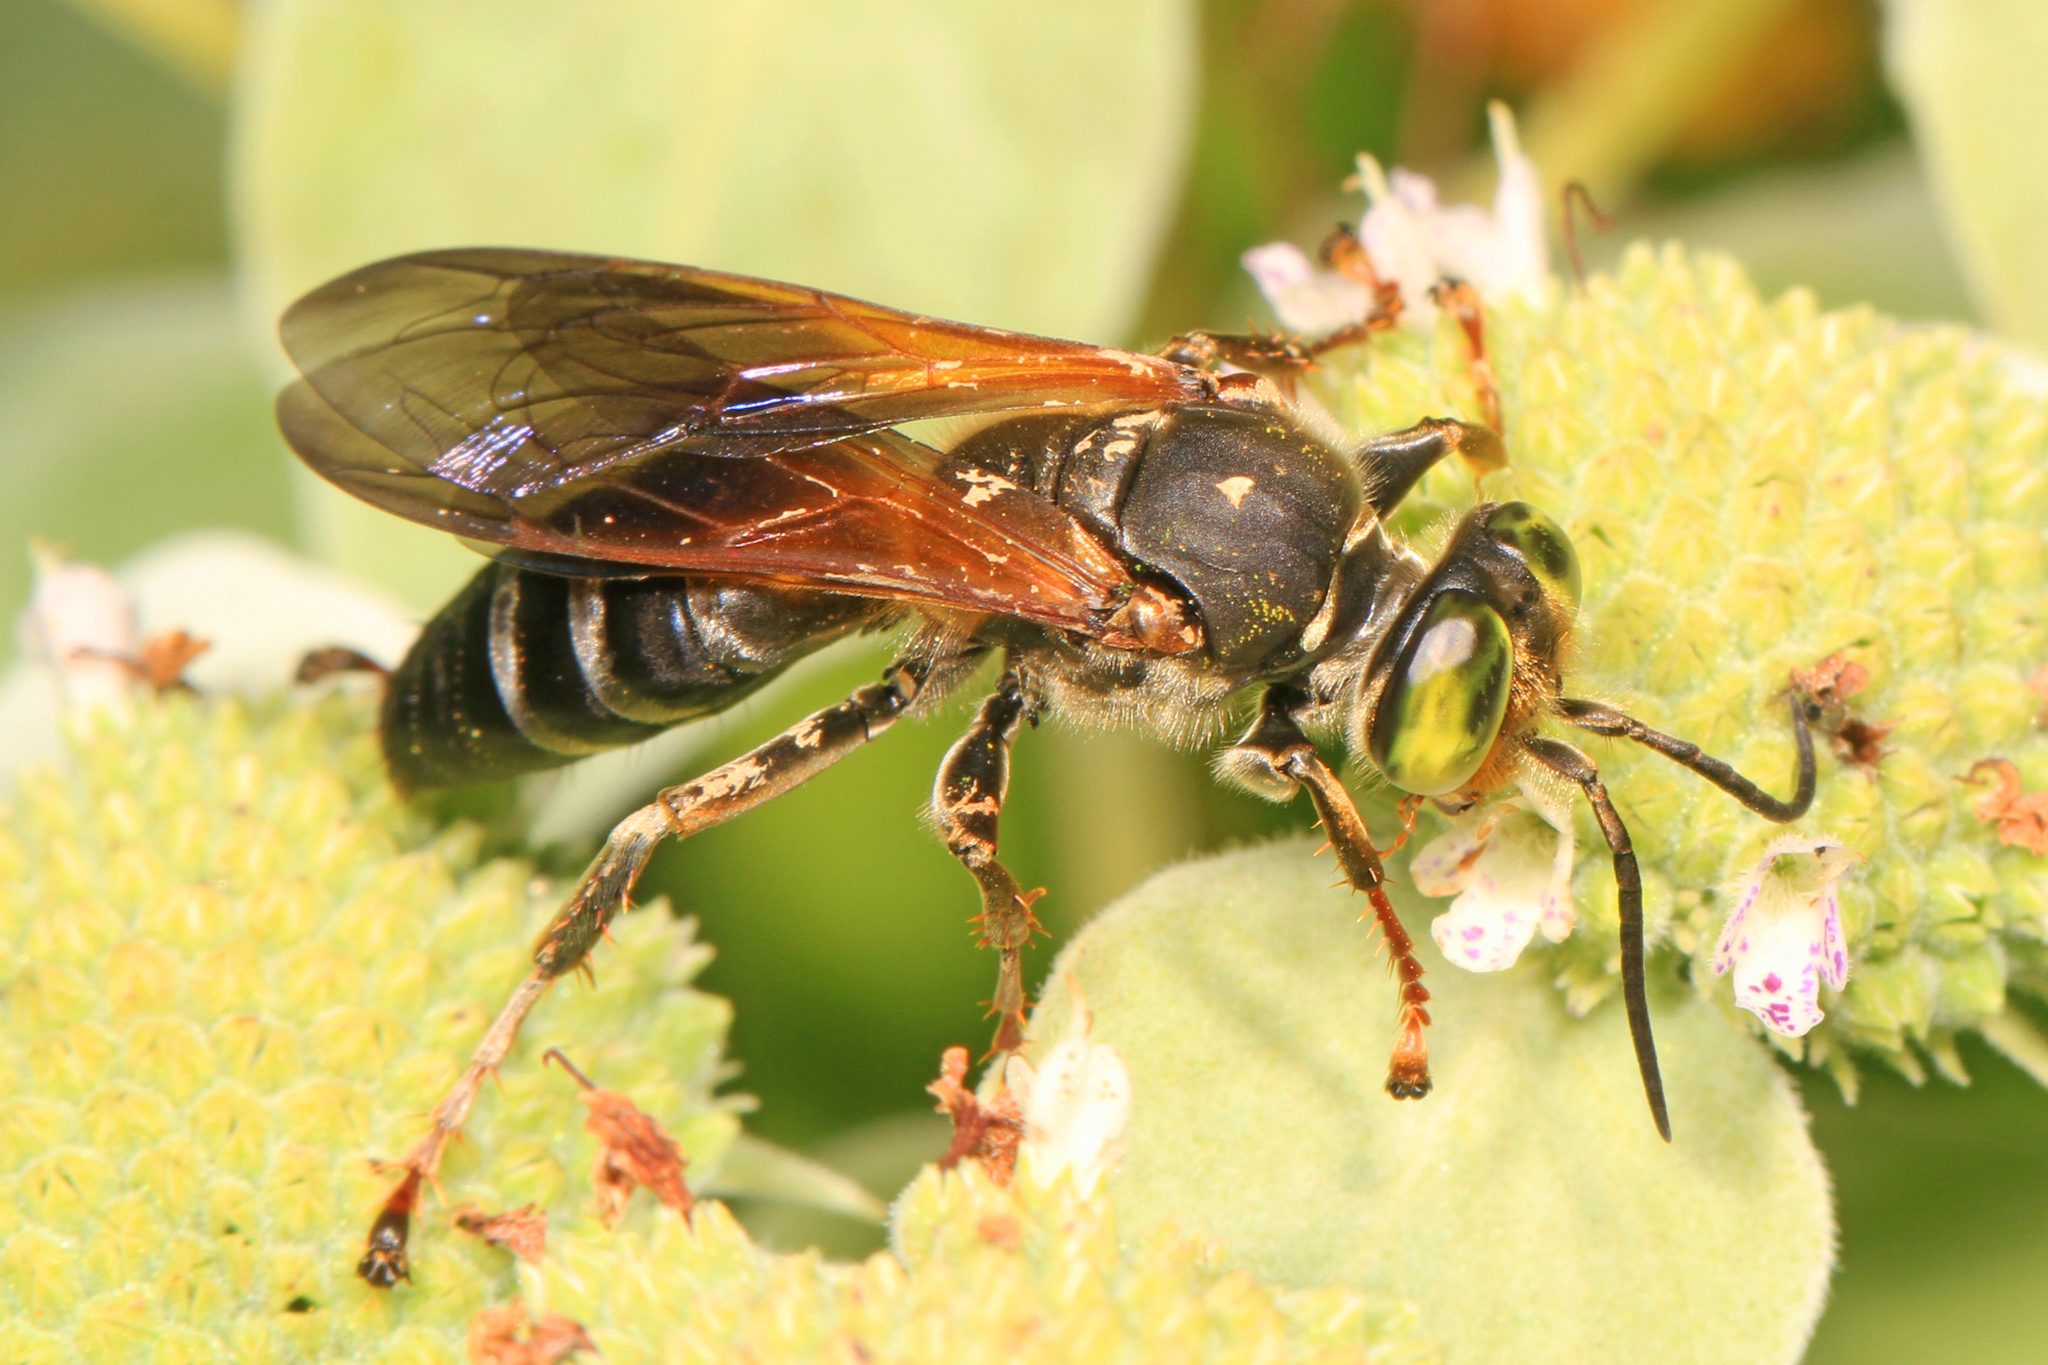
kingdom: Animalia
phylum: Arthropoda
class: Insecta
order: Hymenoptera
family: Crabronidae
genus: Tachytes
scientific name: Tachytes guatemalensis
